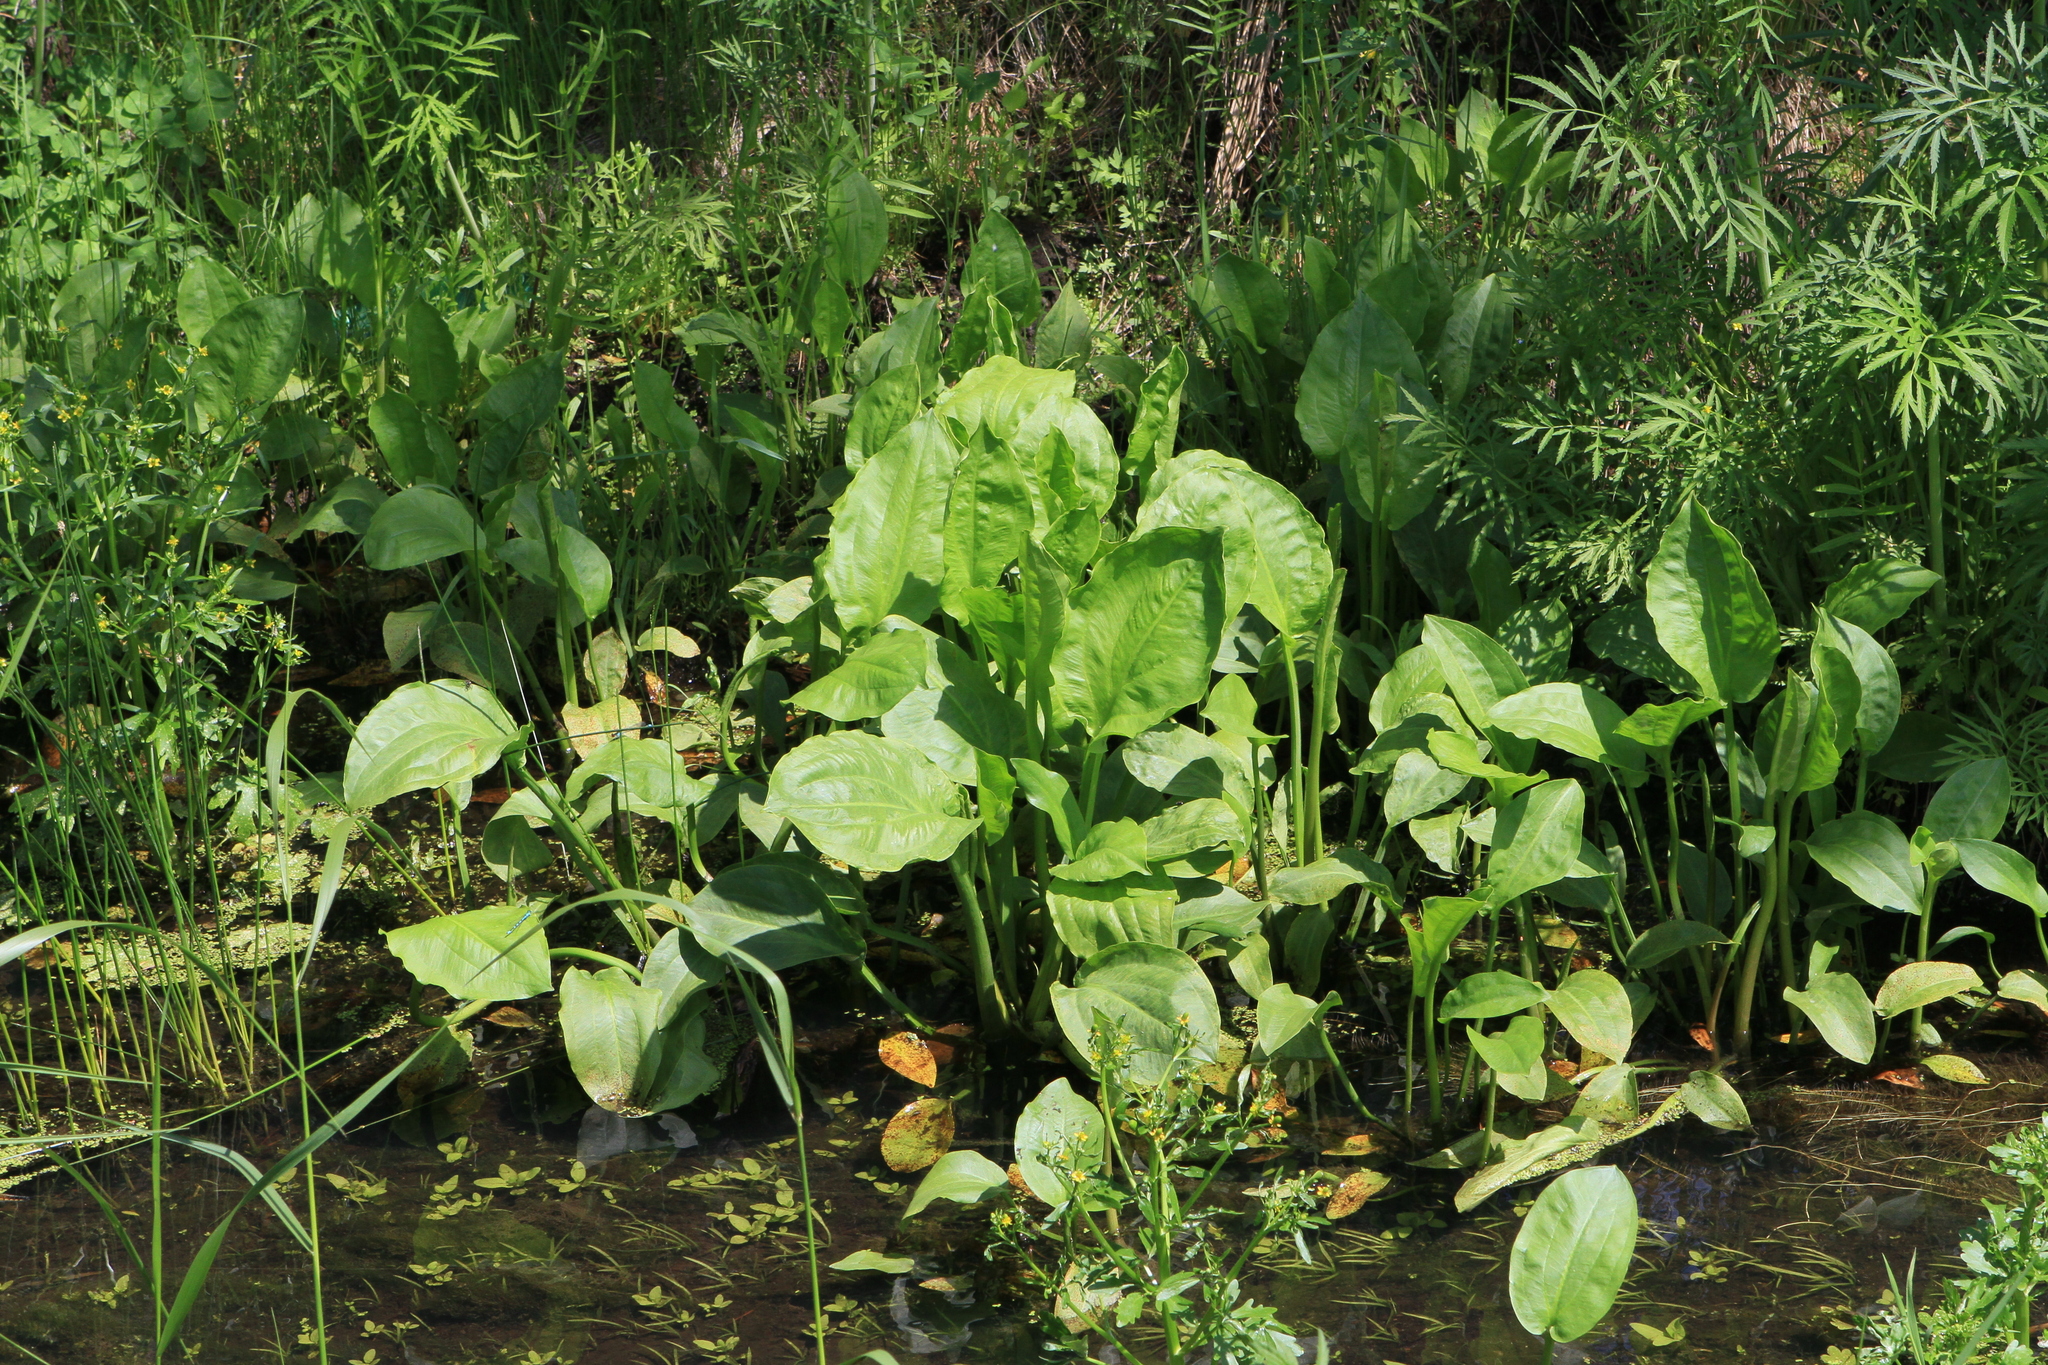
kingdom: Plantae
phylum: Tracheophyta
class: Liliopsida
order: Alismatales
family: Alismataceae
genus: Alisma
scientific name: Alisma plantago-aquatica
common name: Water-plantain
